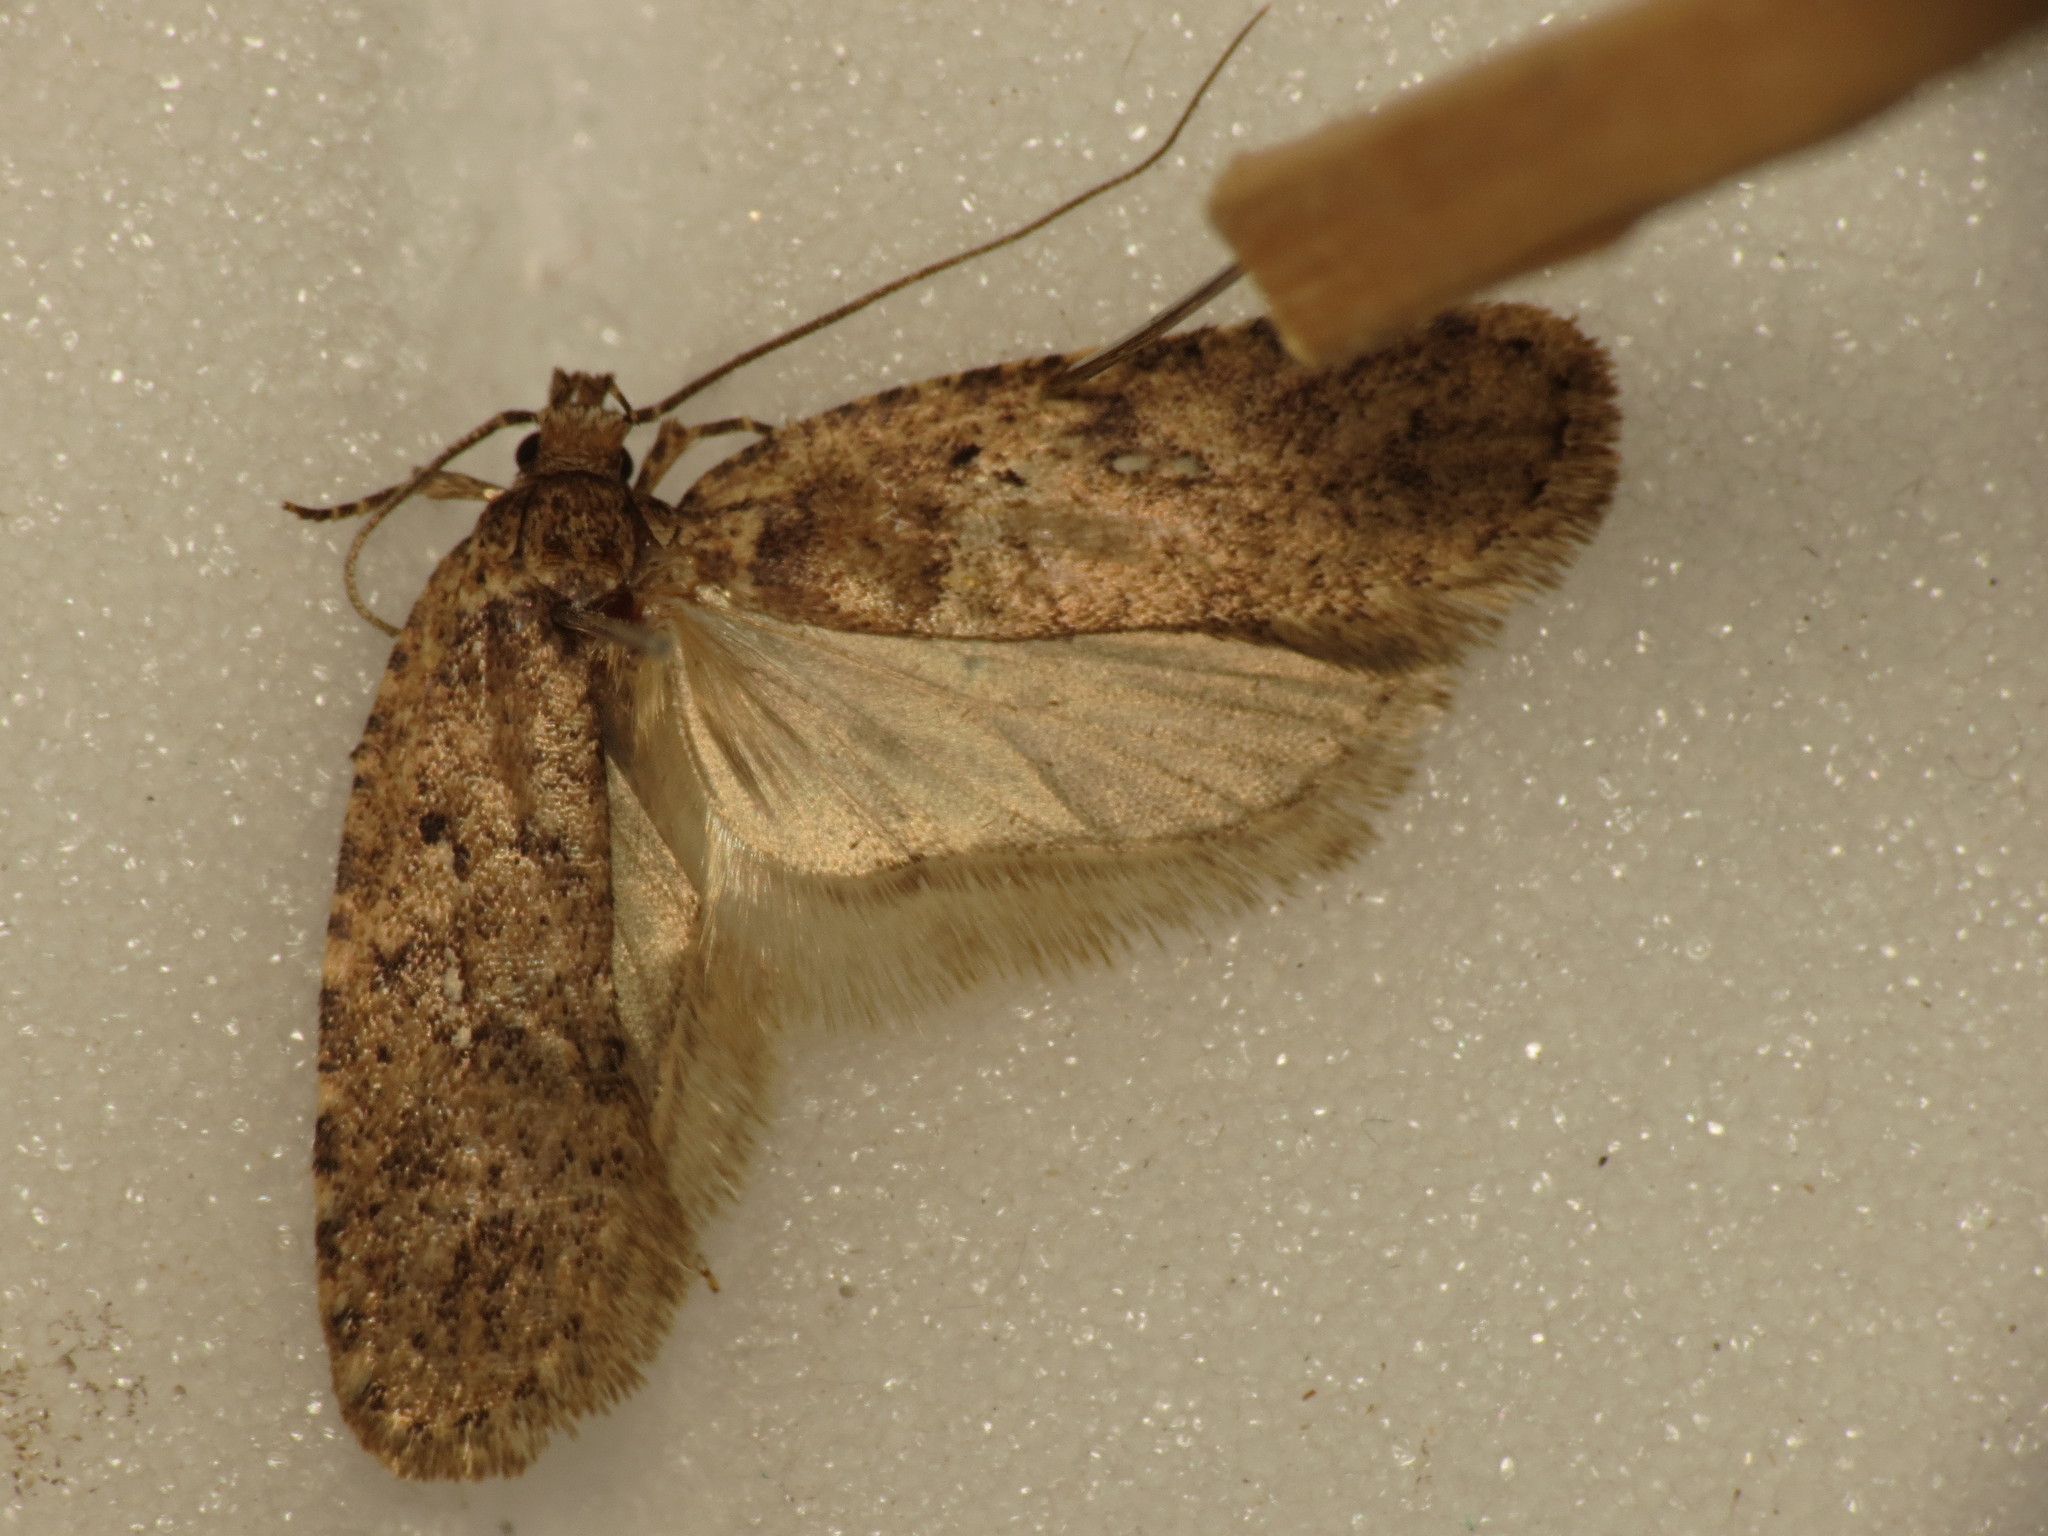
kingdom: Animalia
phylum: Arthropoda
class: Insecta
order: Lepidoptera
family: Depressariidae
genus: Agonopterix
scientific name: Agonopterix heracliana
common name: Common flat-body
